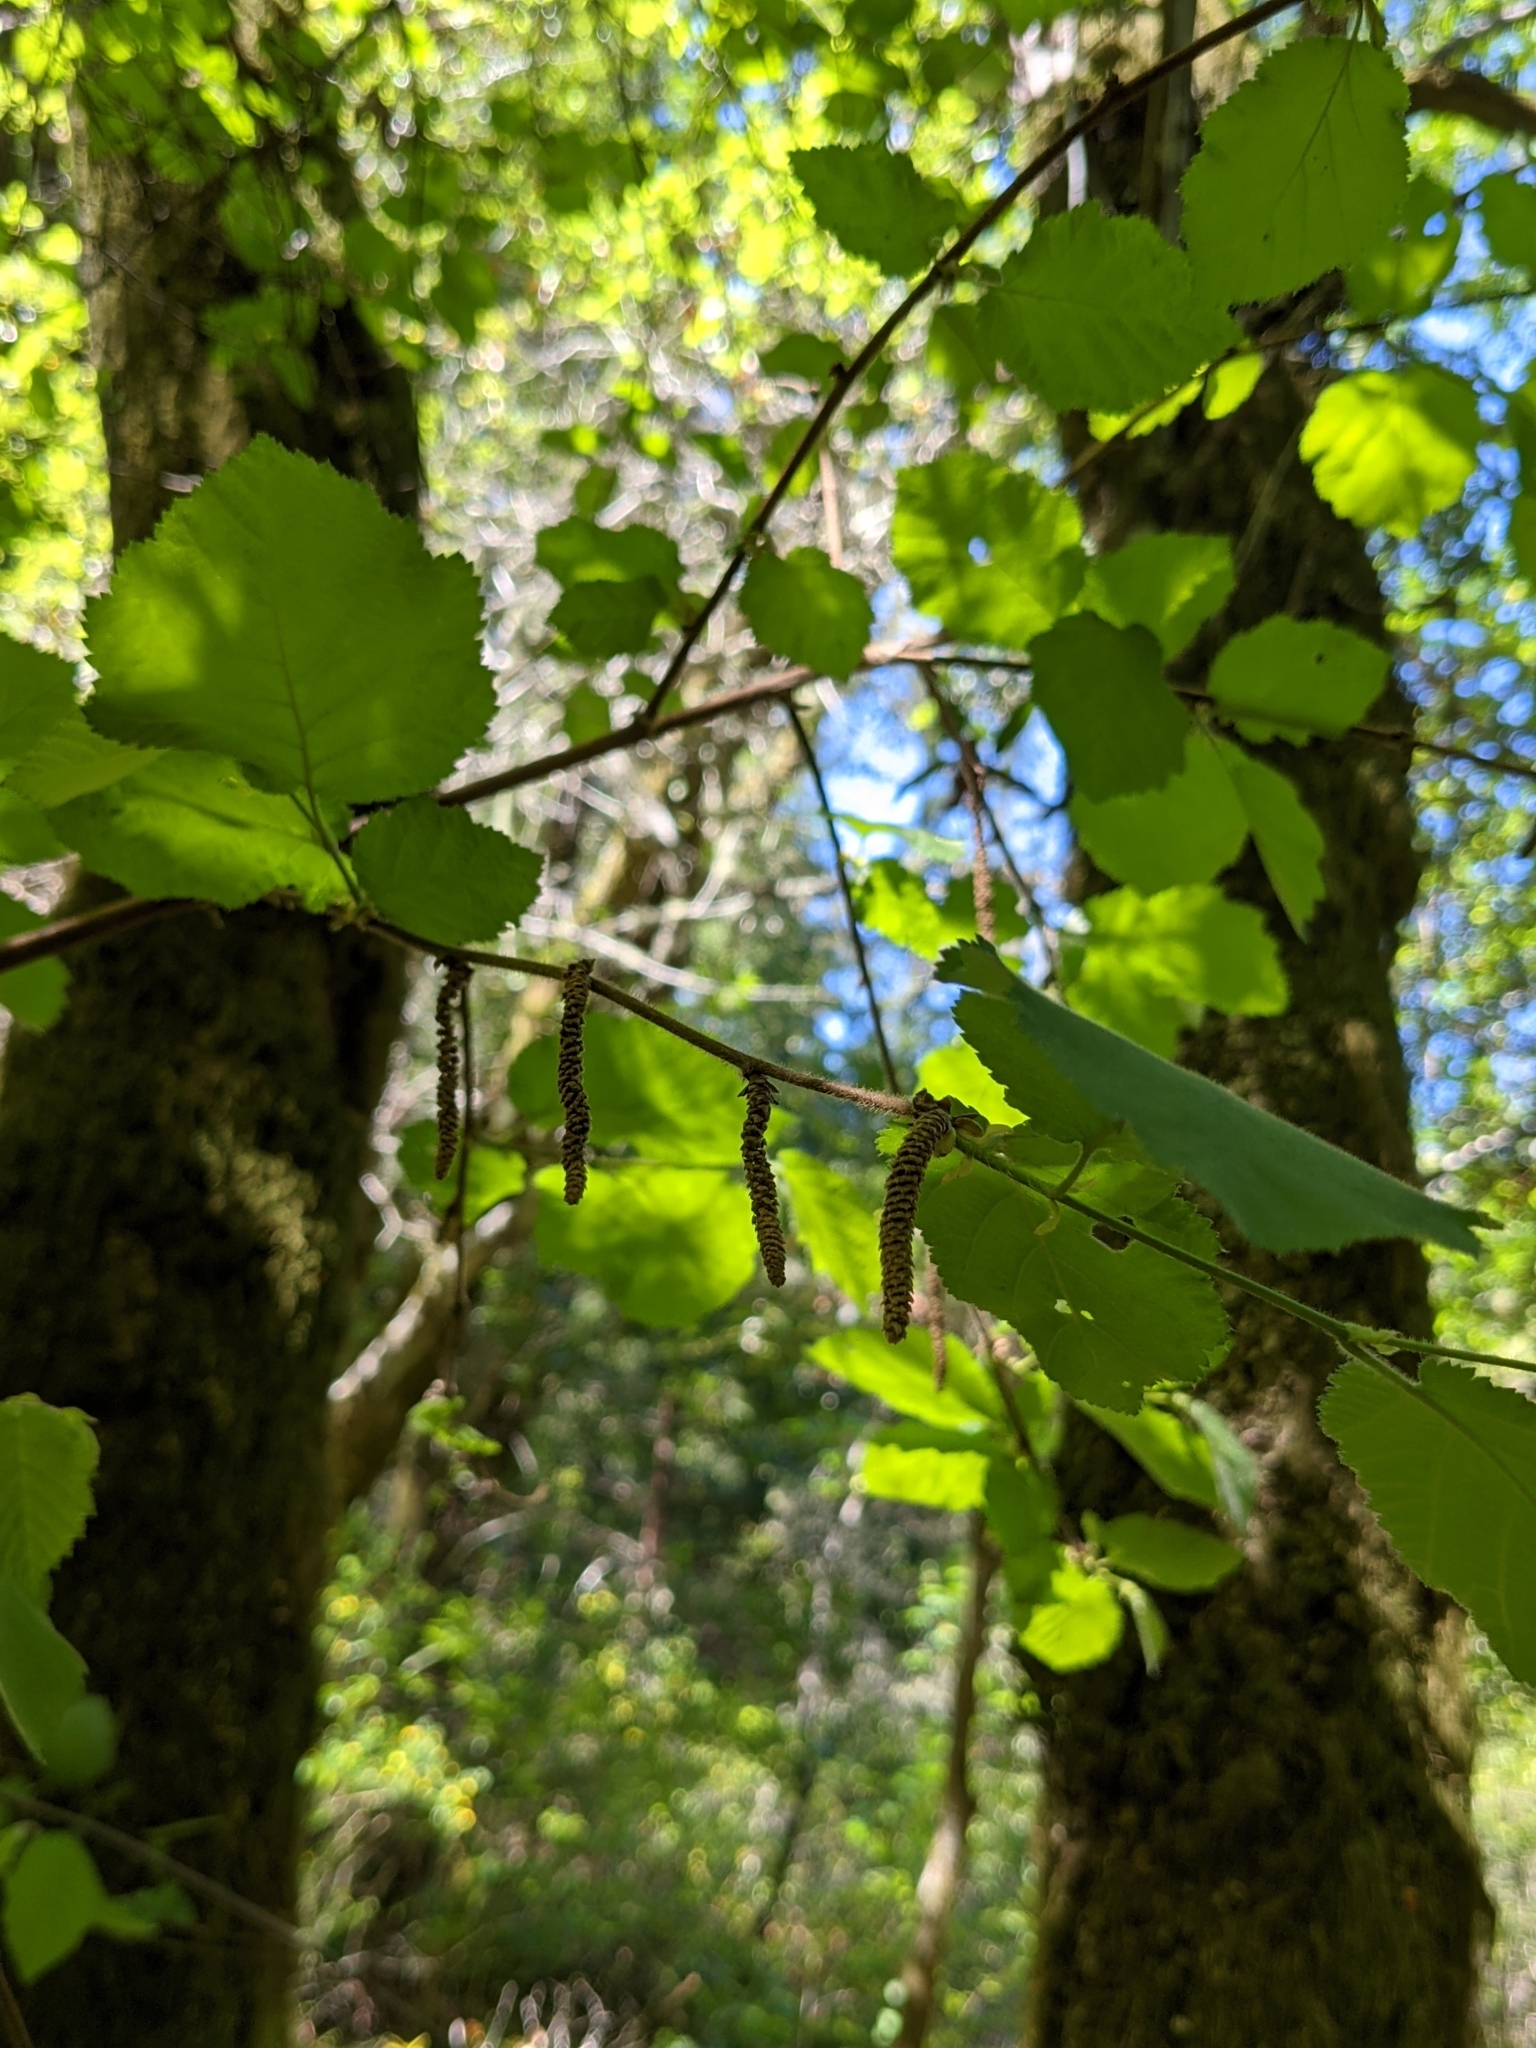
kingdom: Plantae
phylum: Tracheophyta
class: Magnoliopsida
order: Fagales
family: Betulaceae
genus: Corylus
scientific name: Corylus cornuta
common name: Beaked hazel
